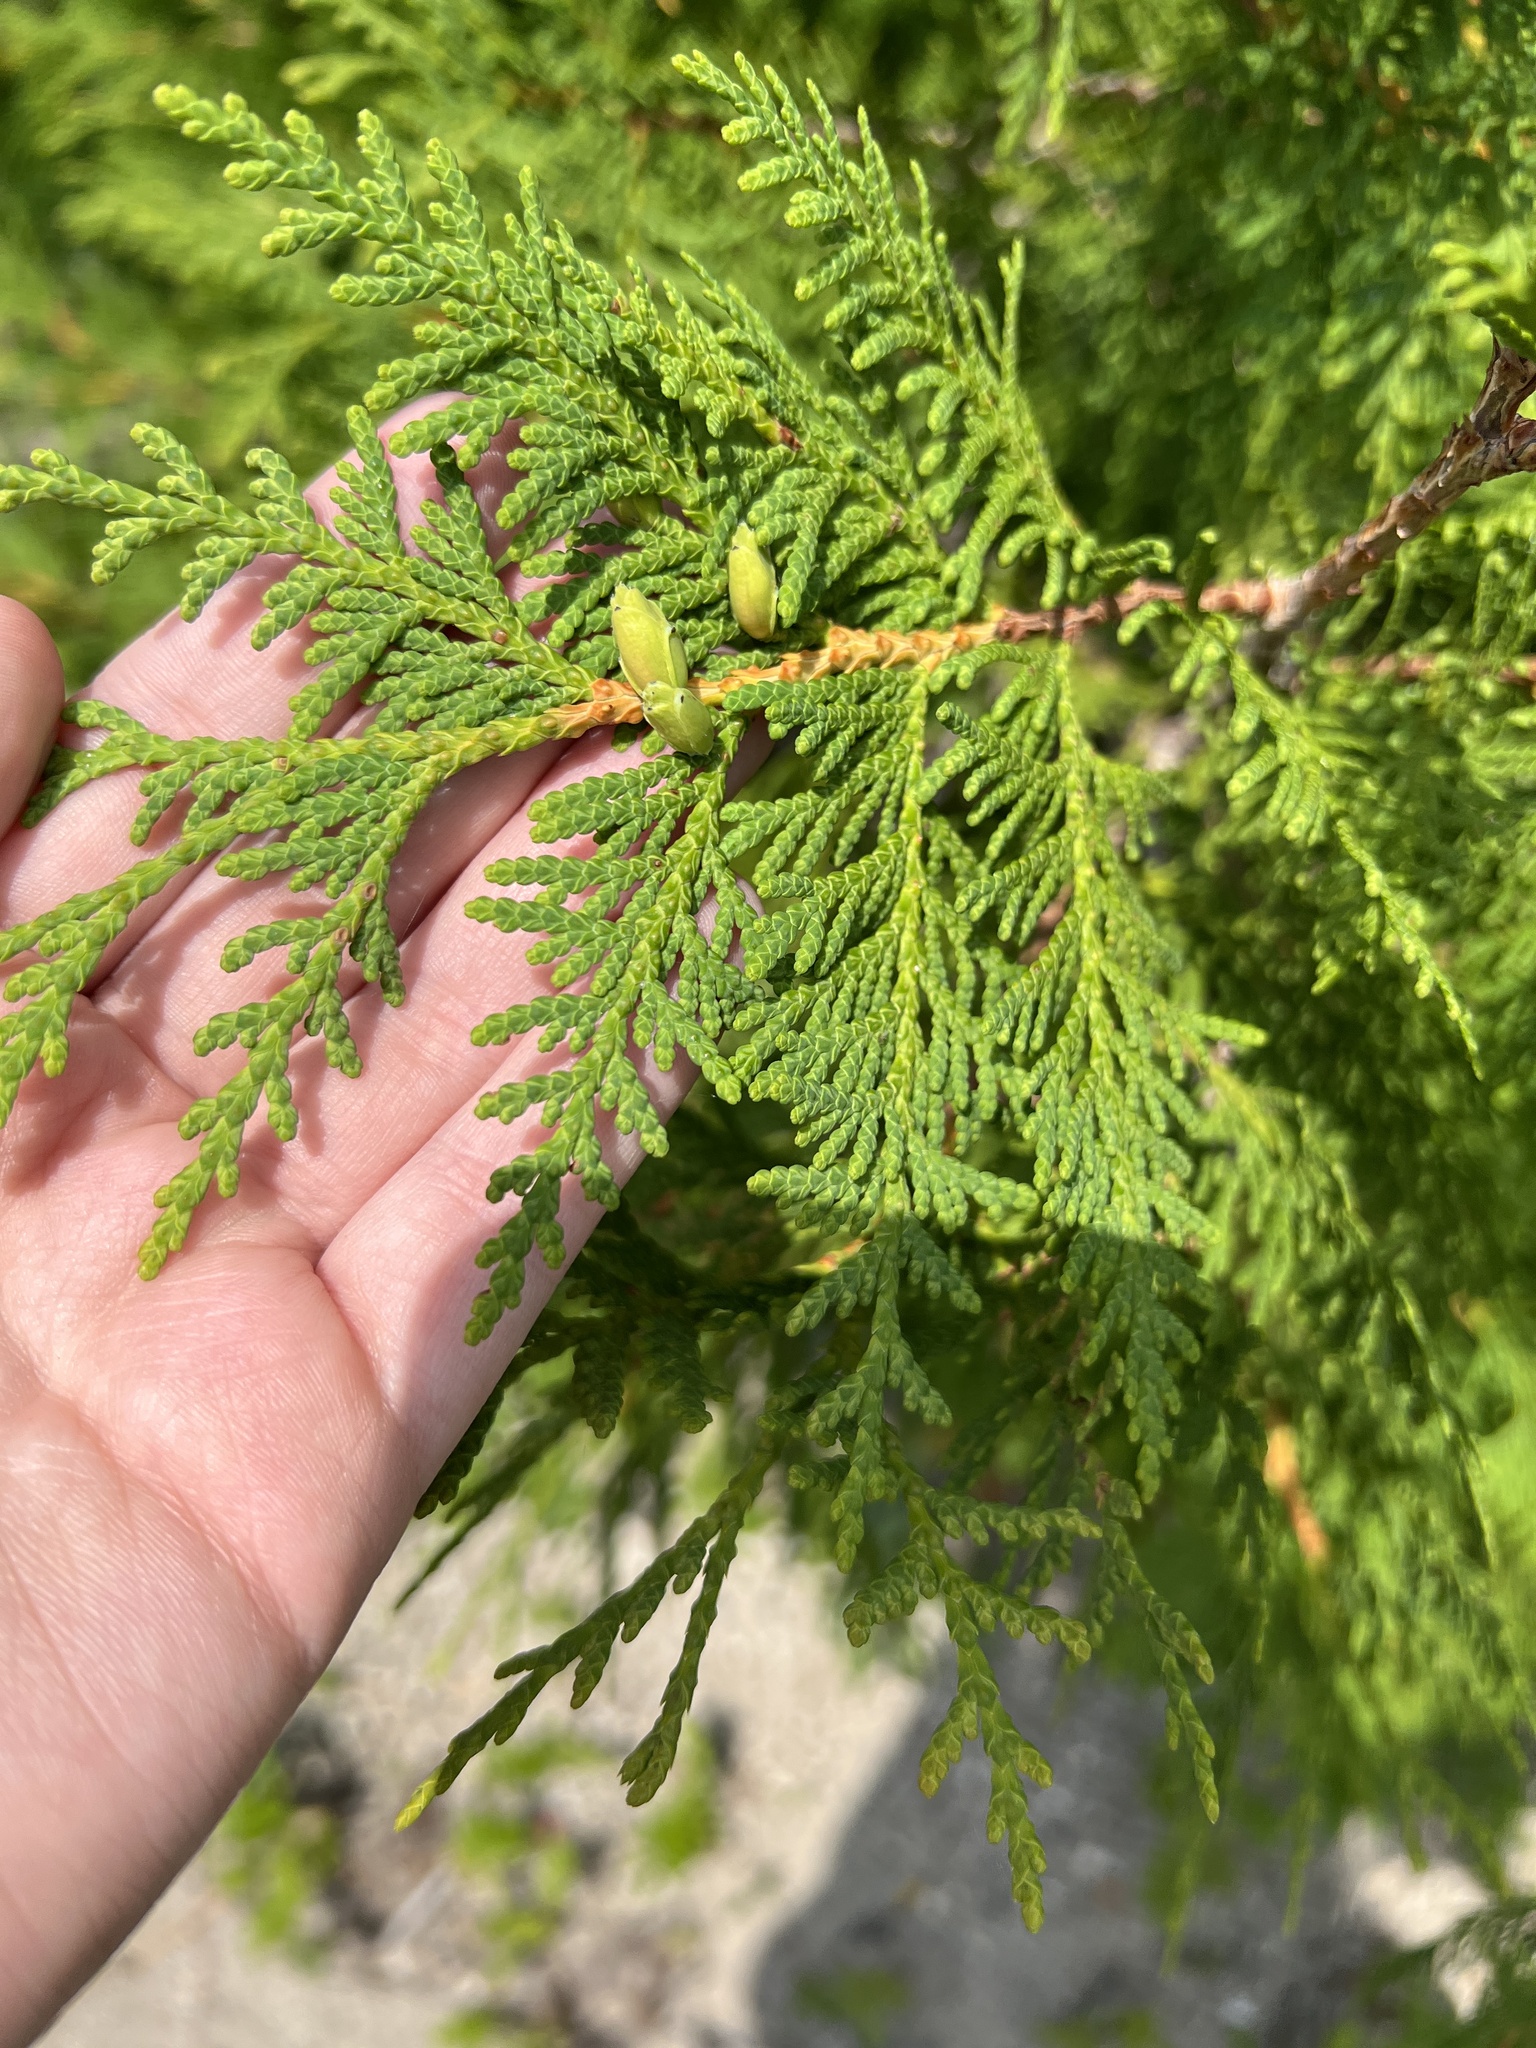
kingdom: Plantae
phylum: Tracheophyta
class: Pinopsida
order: Pinales
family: Cupressaceae
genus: Thuja
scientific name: Thuja occidentalis
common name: Northern white-cedar
